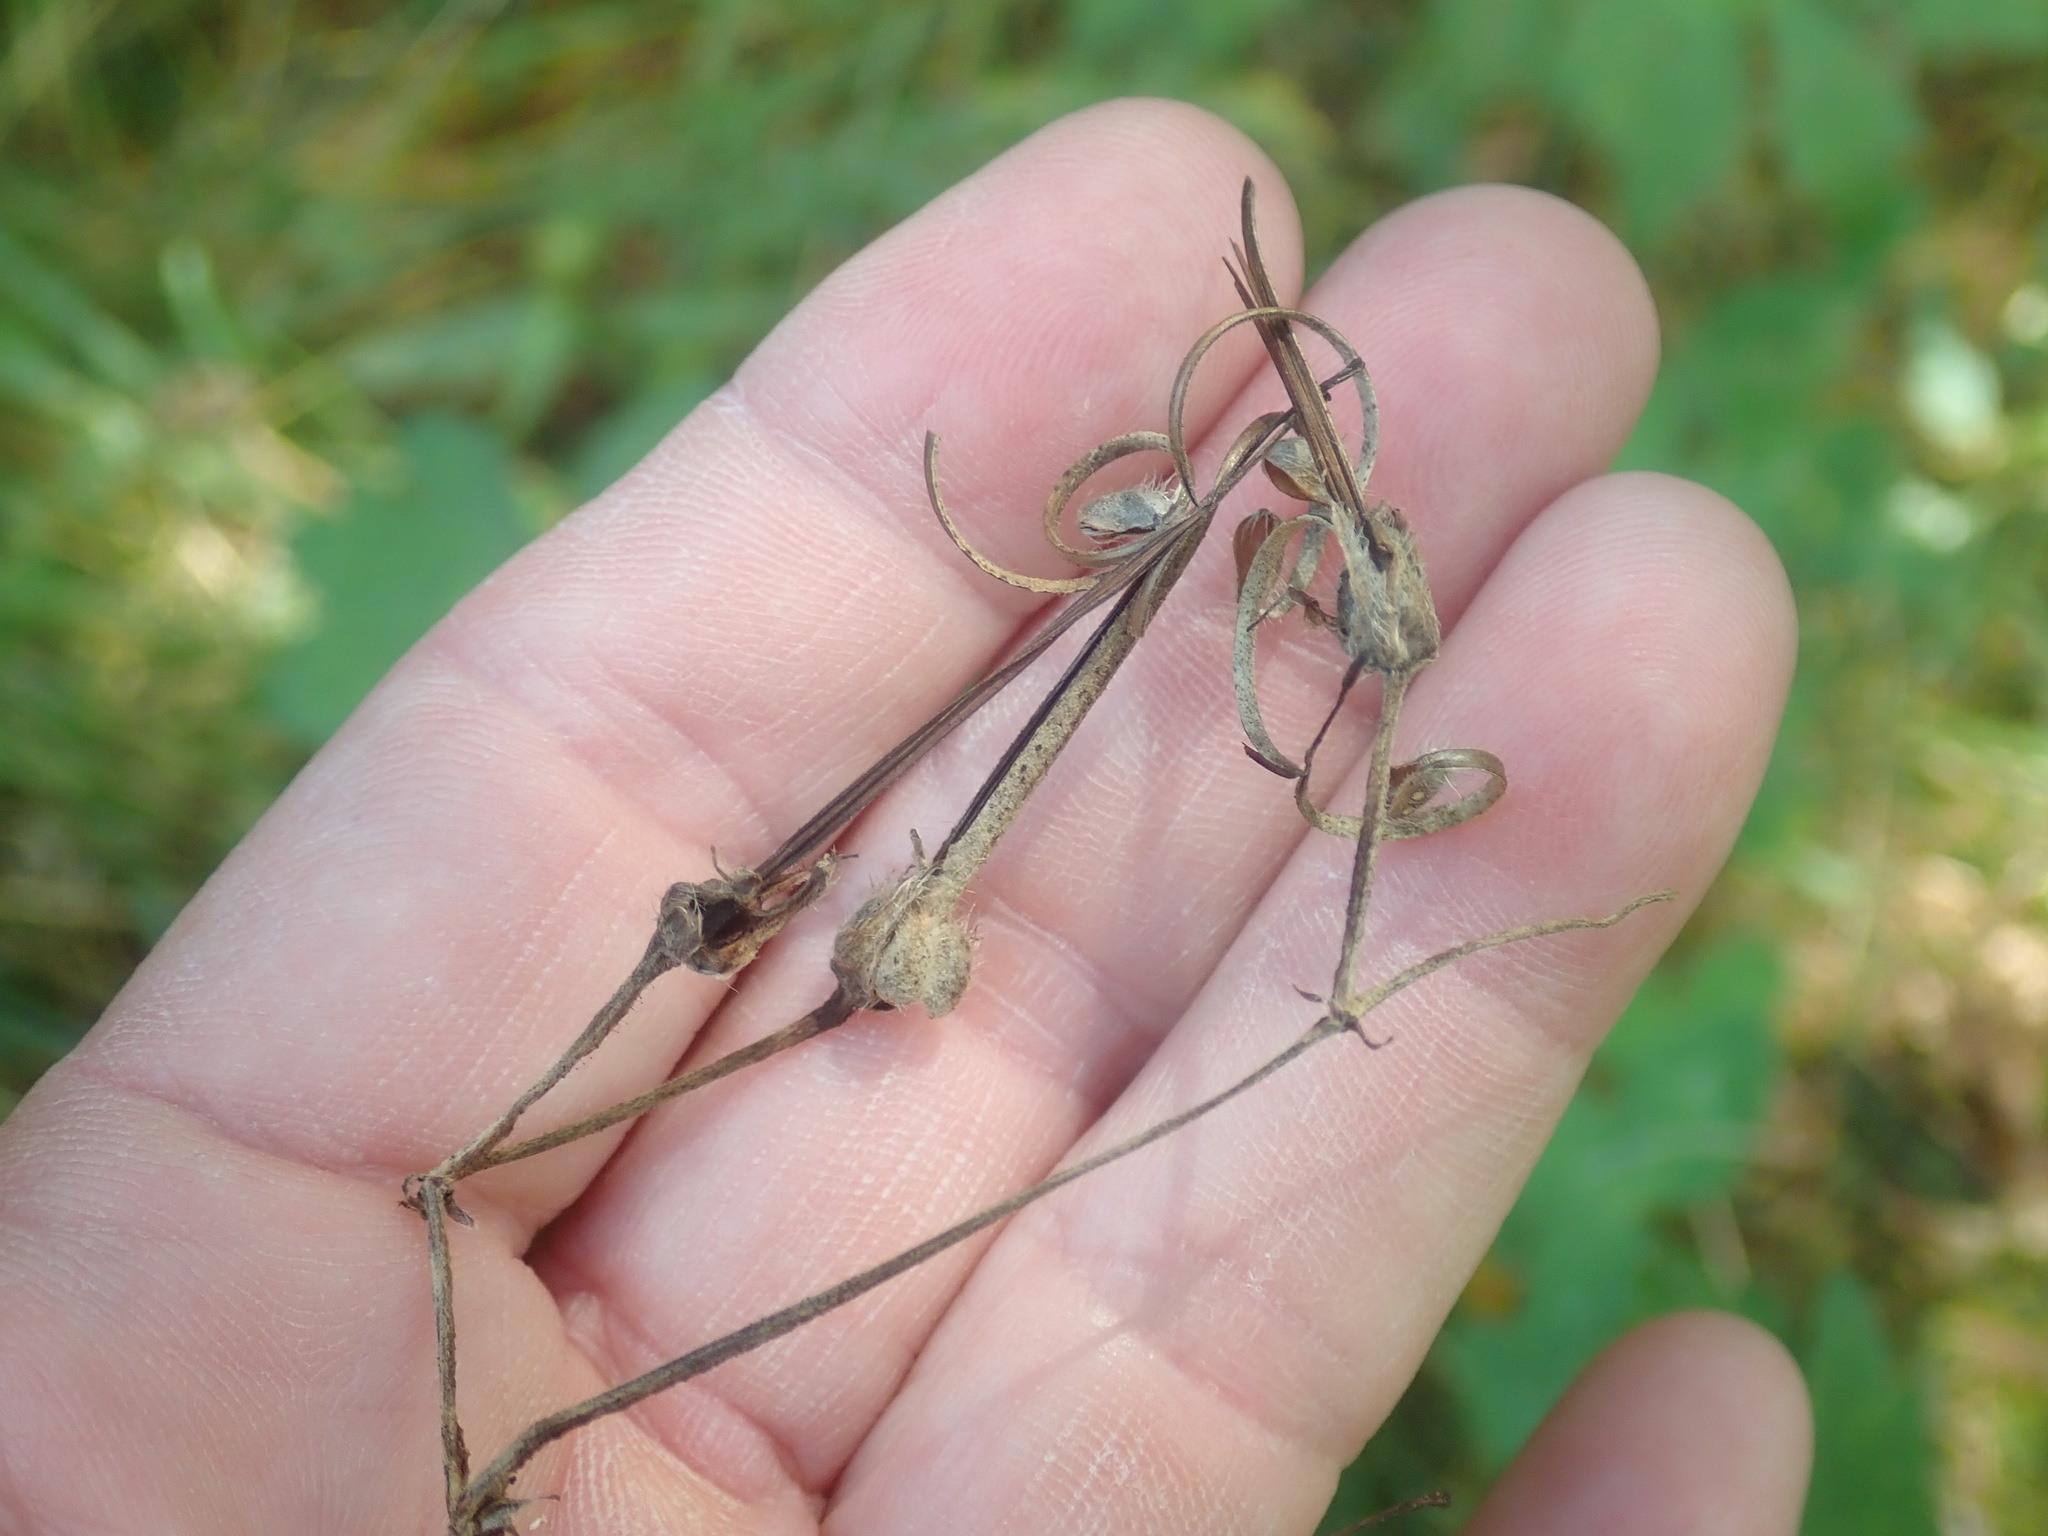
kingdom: Plantae
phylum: Tracheophyta
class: Magnoliopsida
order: Geraniales
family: Geraniaceae
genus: Geranium
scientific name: Geranium maculatum
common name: Spotted geranium
